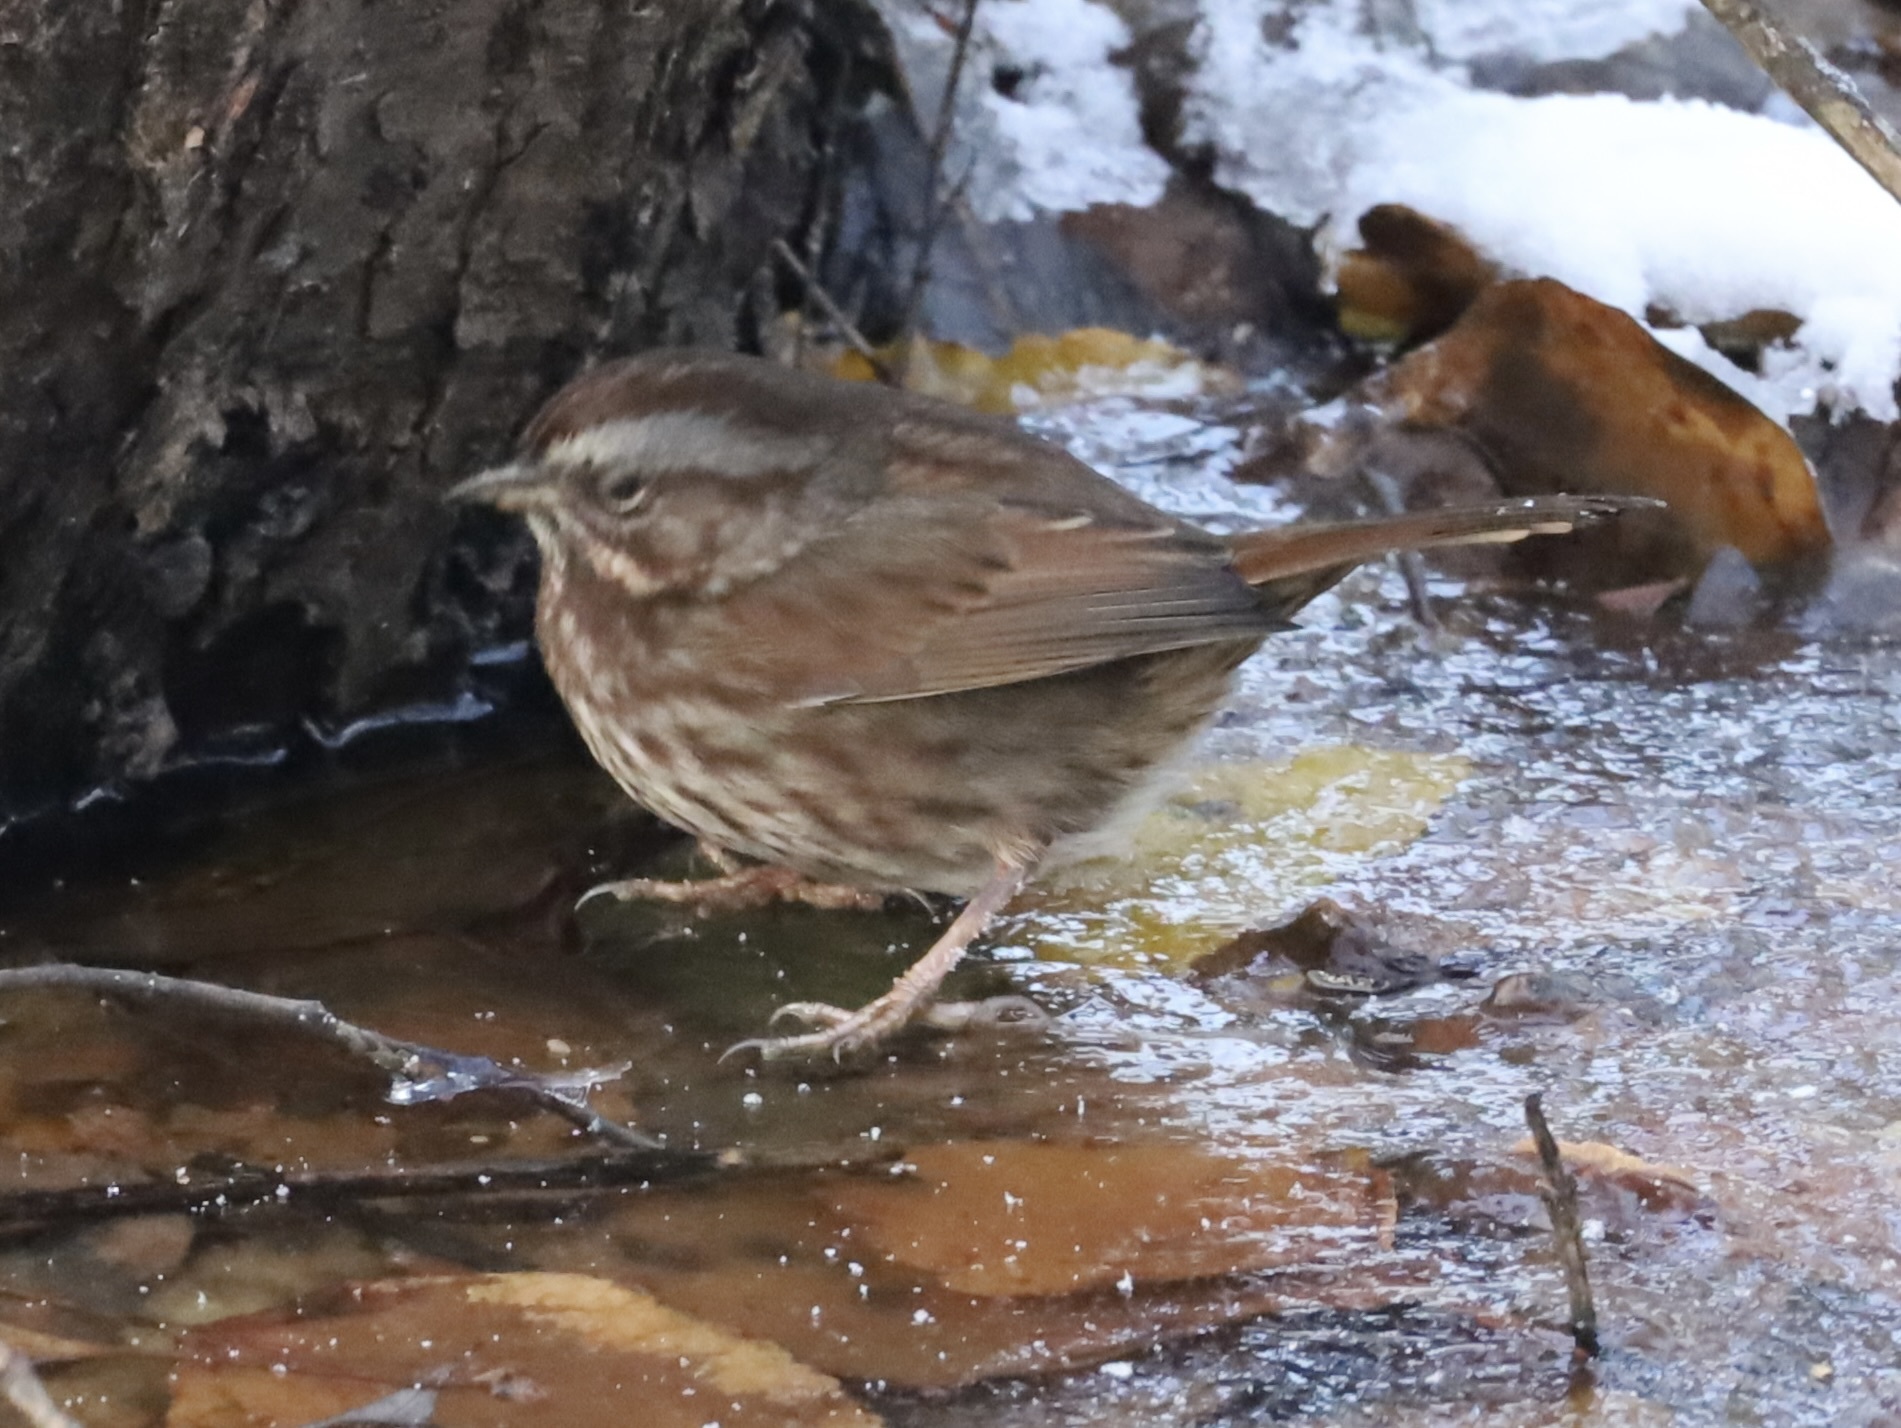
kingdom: Animalia
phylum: Chordata
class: Aves
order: Passeriformes
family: Passerellidae
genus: Melospiza
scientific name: Melospiza melodia
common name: Song sparrow
